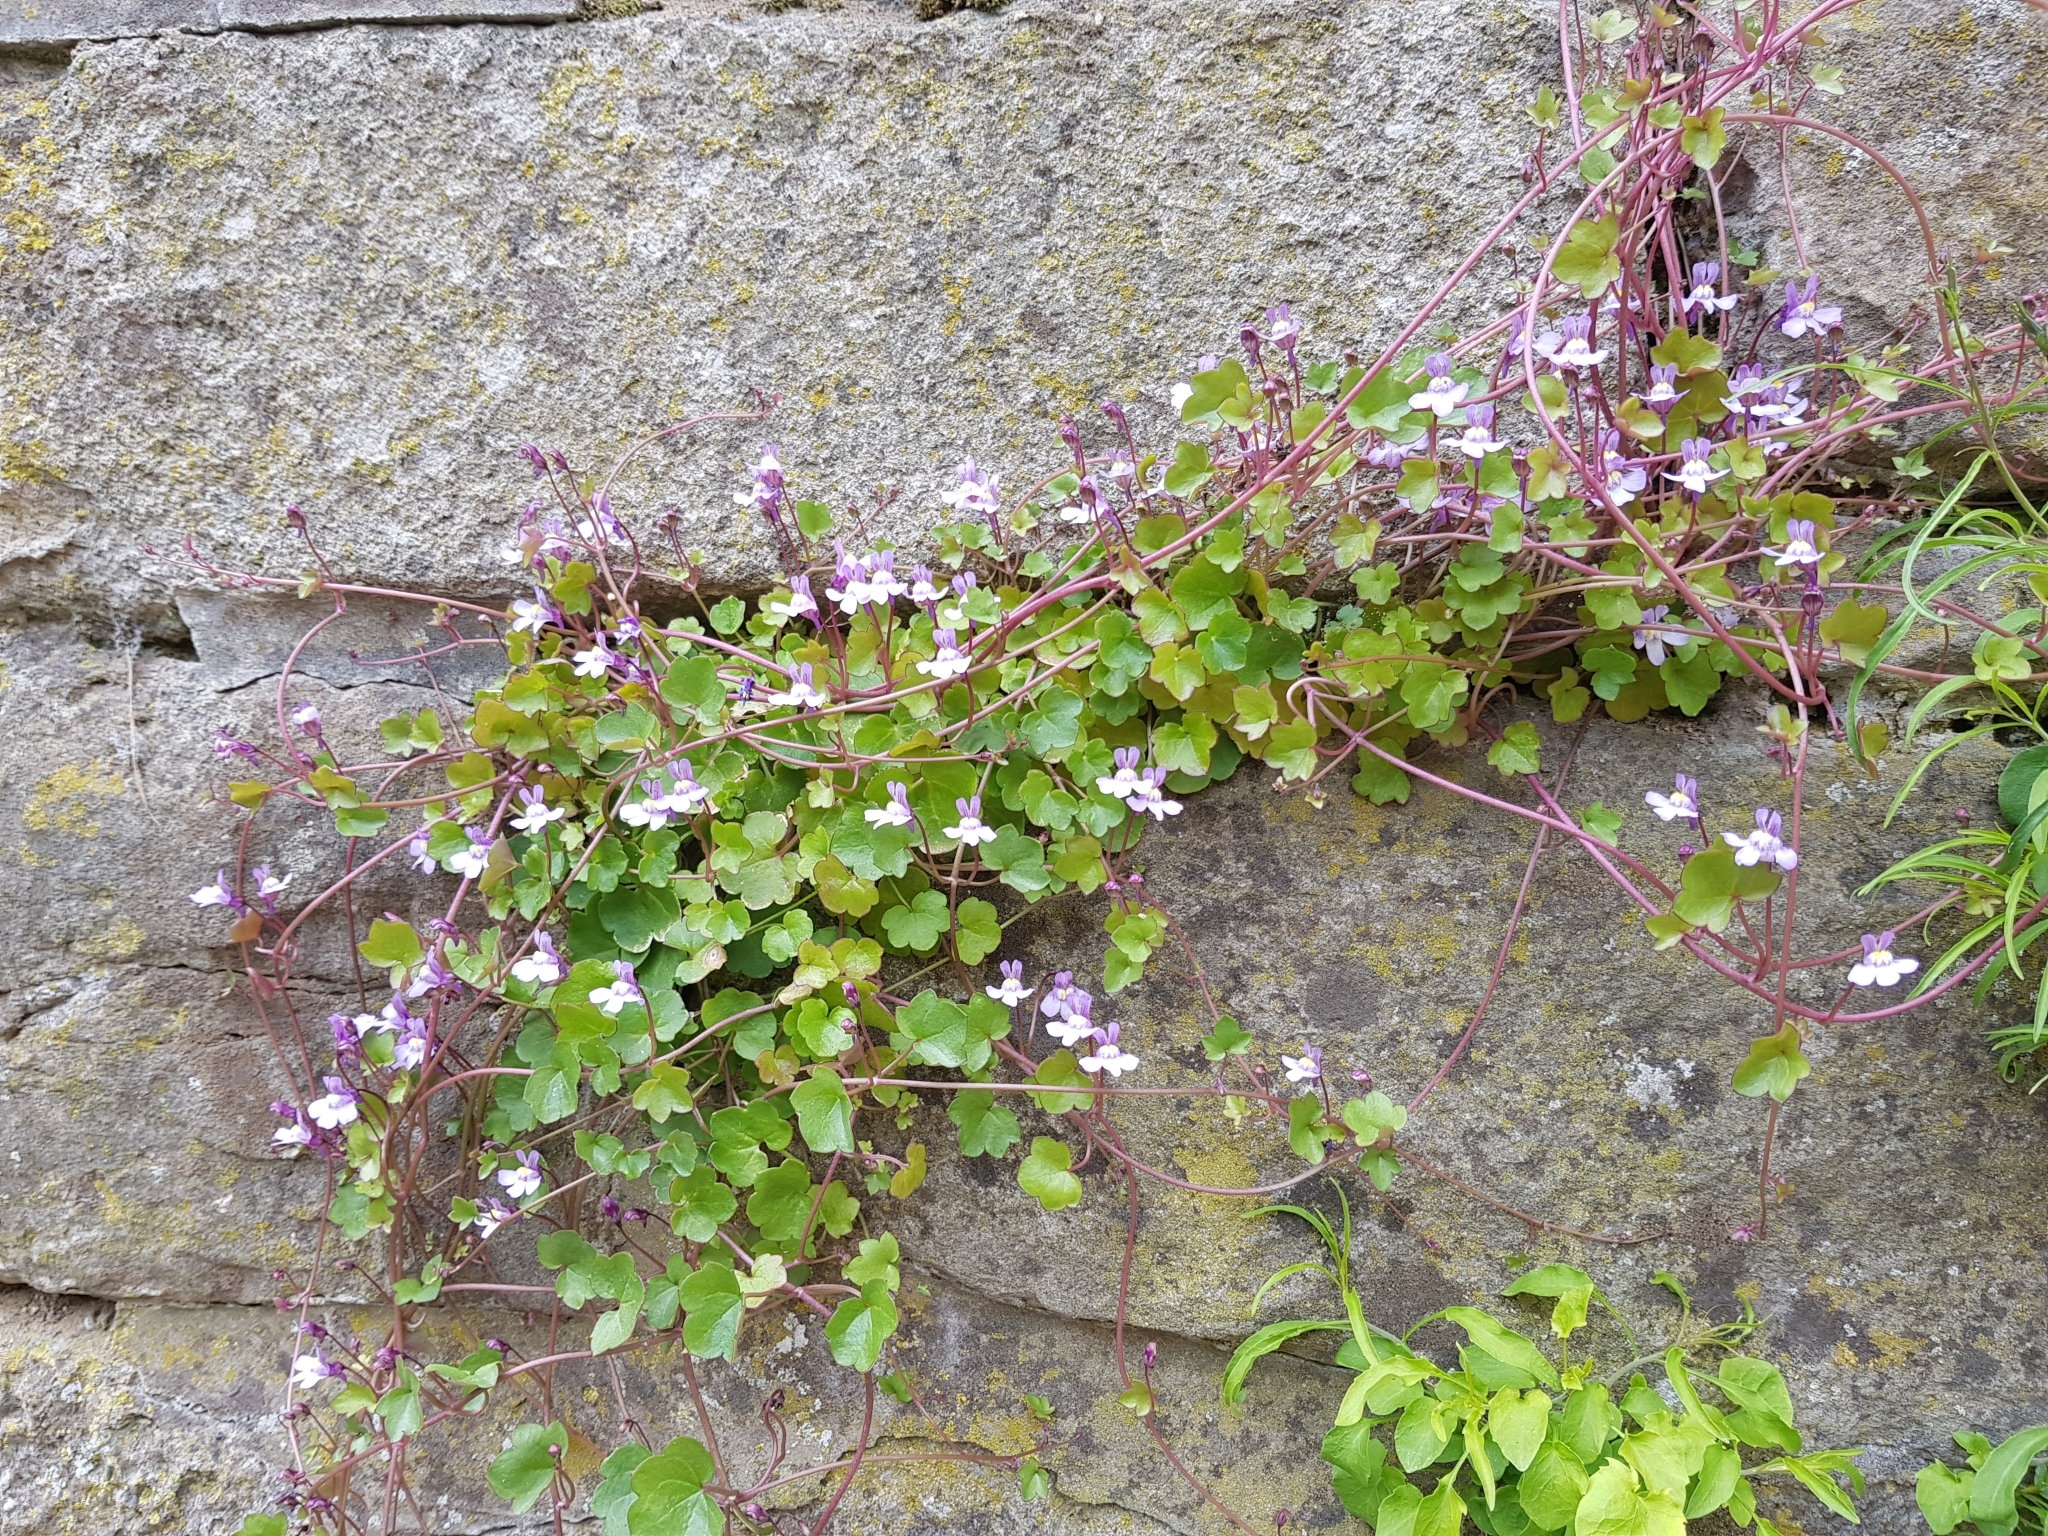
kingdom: Plantae
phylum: Tracheophyta
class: Magnoliopsida
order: Lamiales
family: Plantaginaceae
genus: Cymbalaria
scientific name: Cymbalaria muralis
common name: Ivy-leaved toadflax
